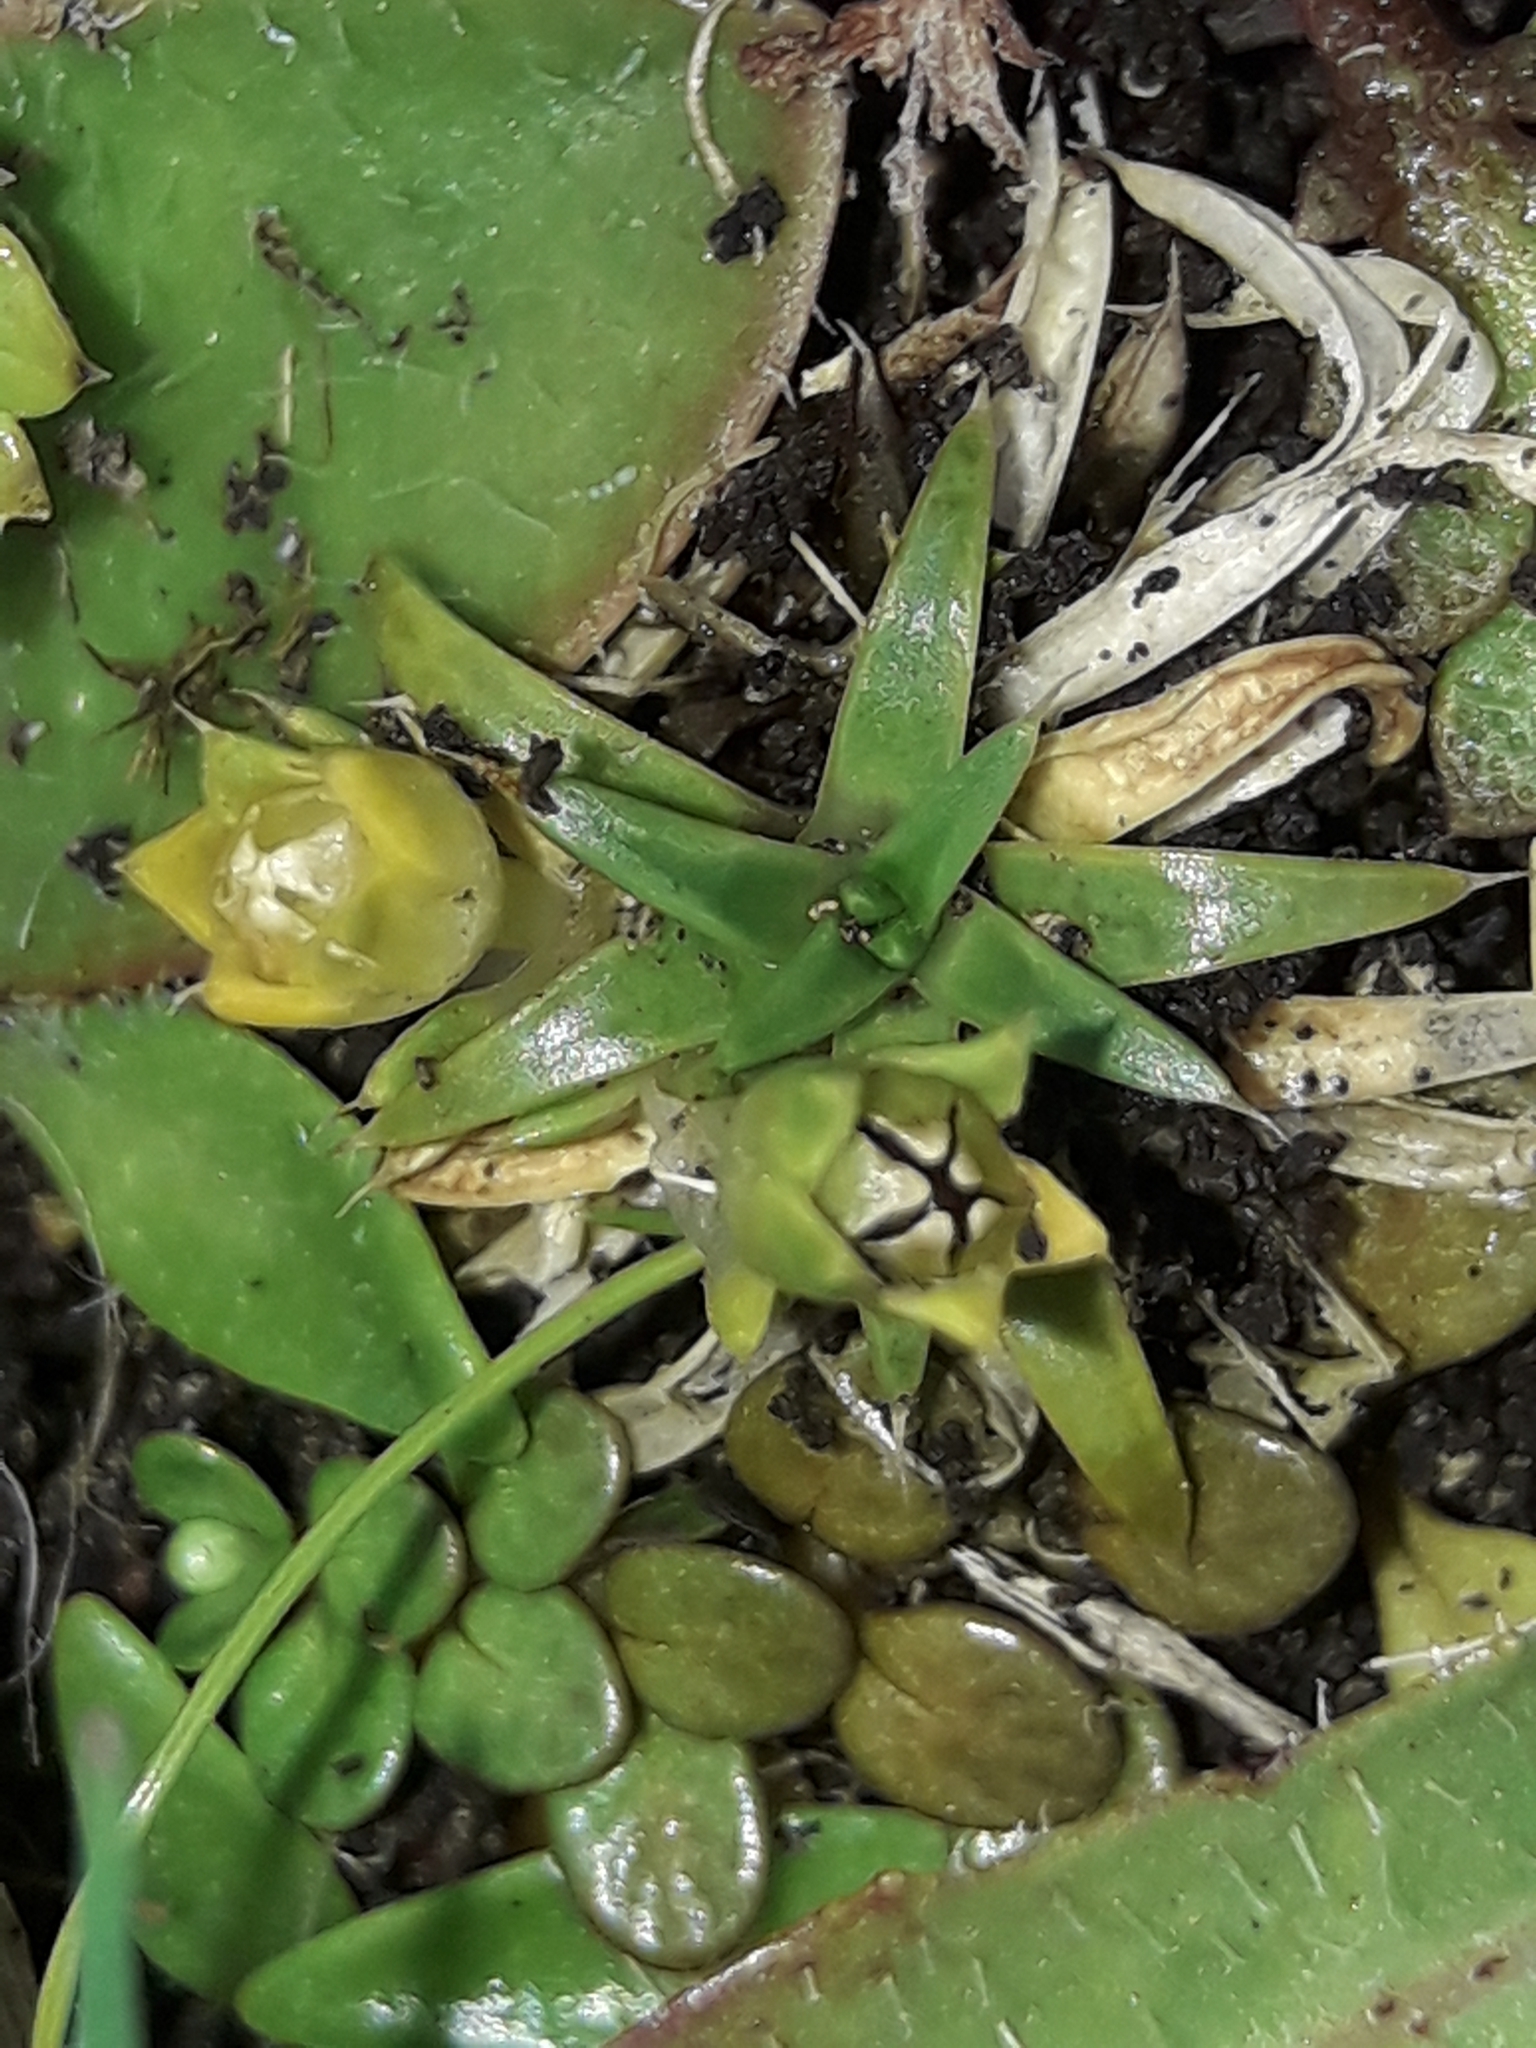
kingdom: Plantae
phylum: Tracheophyta
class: Magnoliopsida
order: Caryophyllales
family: Caryophyllaceae
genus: Colobanthus
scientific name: Colobanthus muelleri
